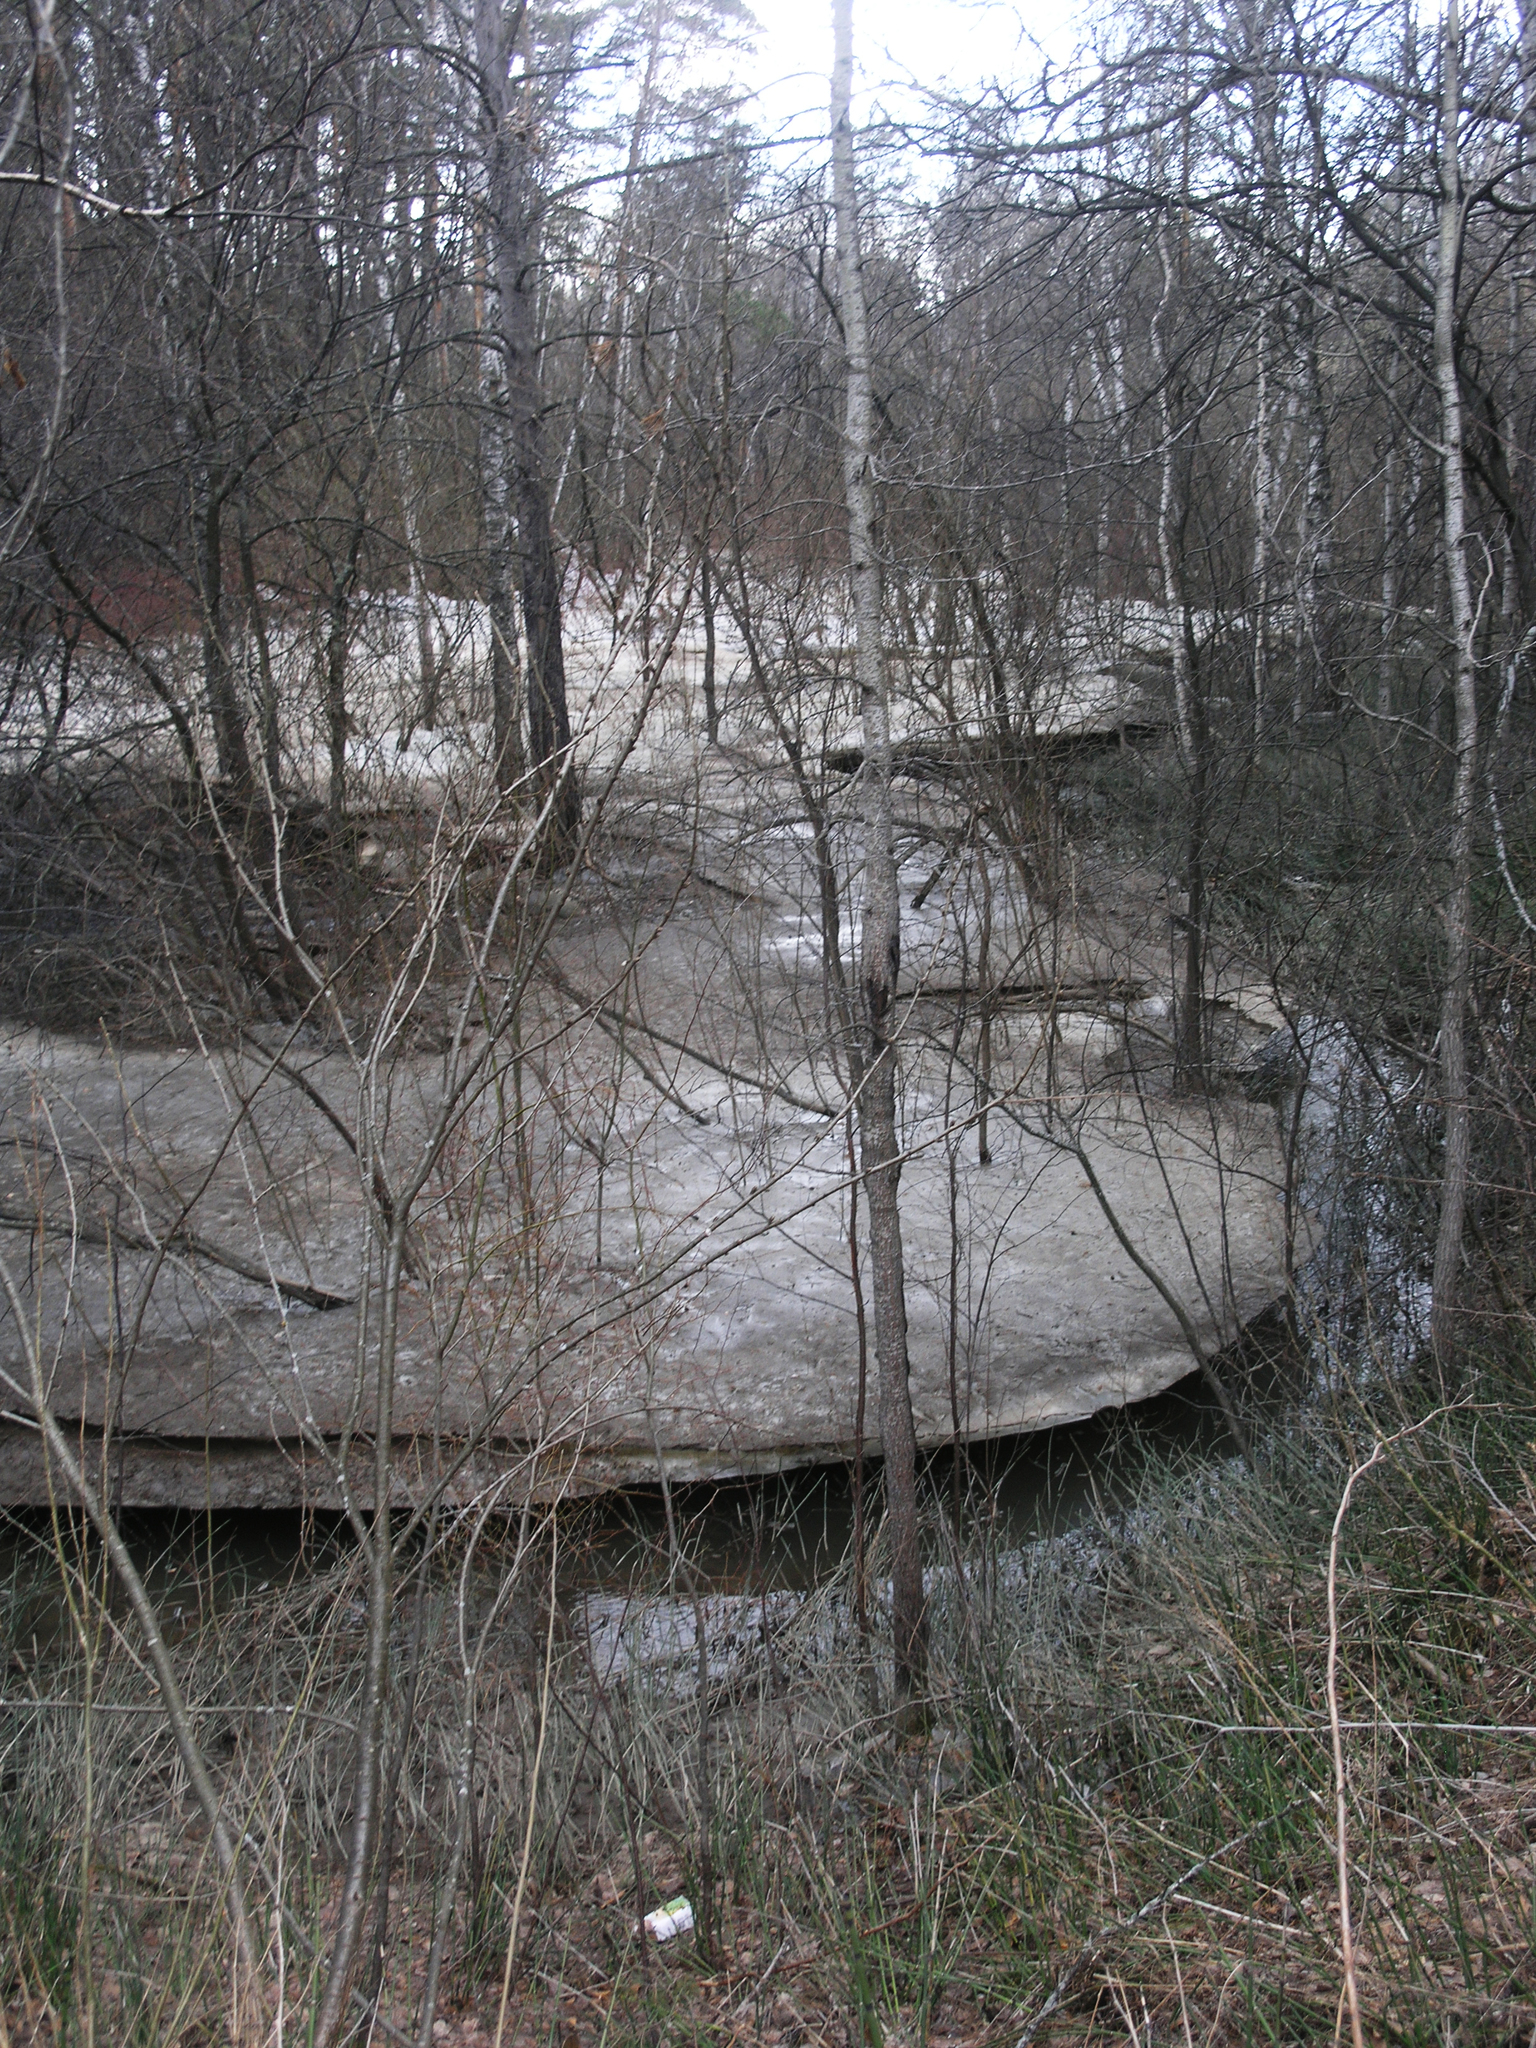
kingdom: Plantae
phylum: Tracheophyta
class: Magnoliopsida
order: Malpighiales
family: Salicaceae
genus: Populus
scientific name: Populus tremula
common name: European aspen
